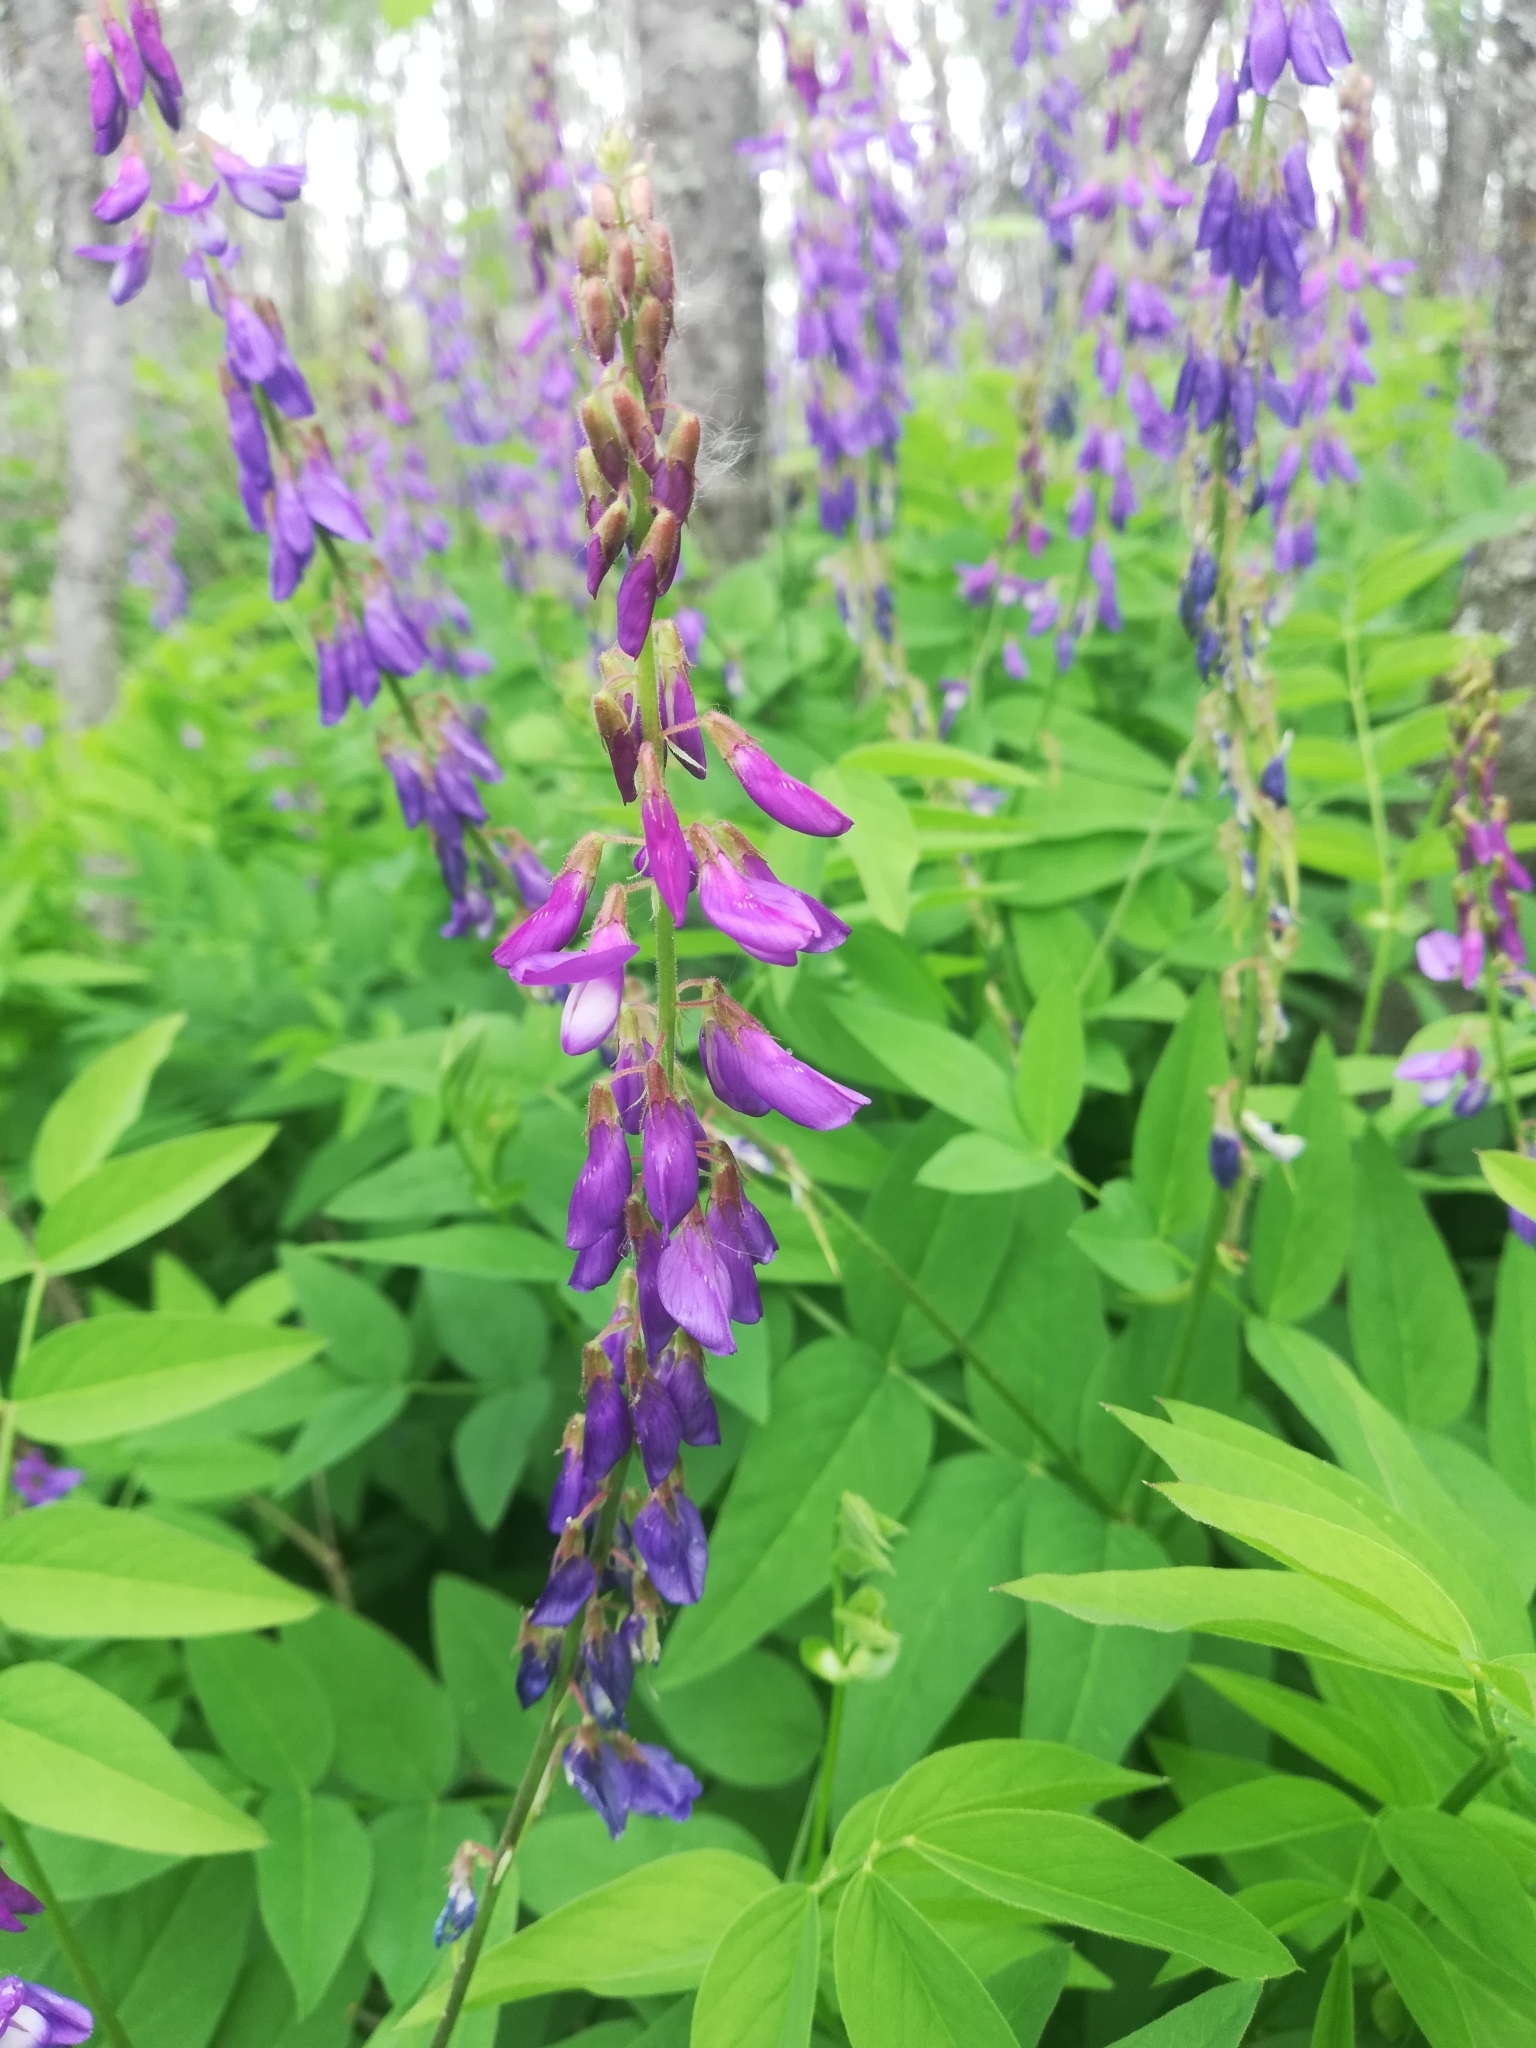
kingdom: Plantae
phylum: Tracheophyta
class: Magnoliopsida
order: Fabales
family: Fabaceae
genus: Galega
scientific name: Galega orientalis
